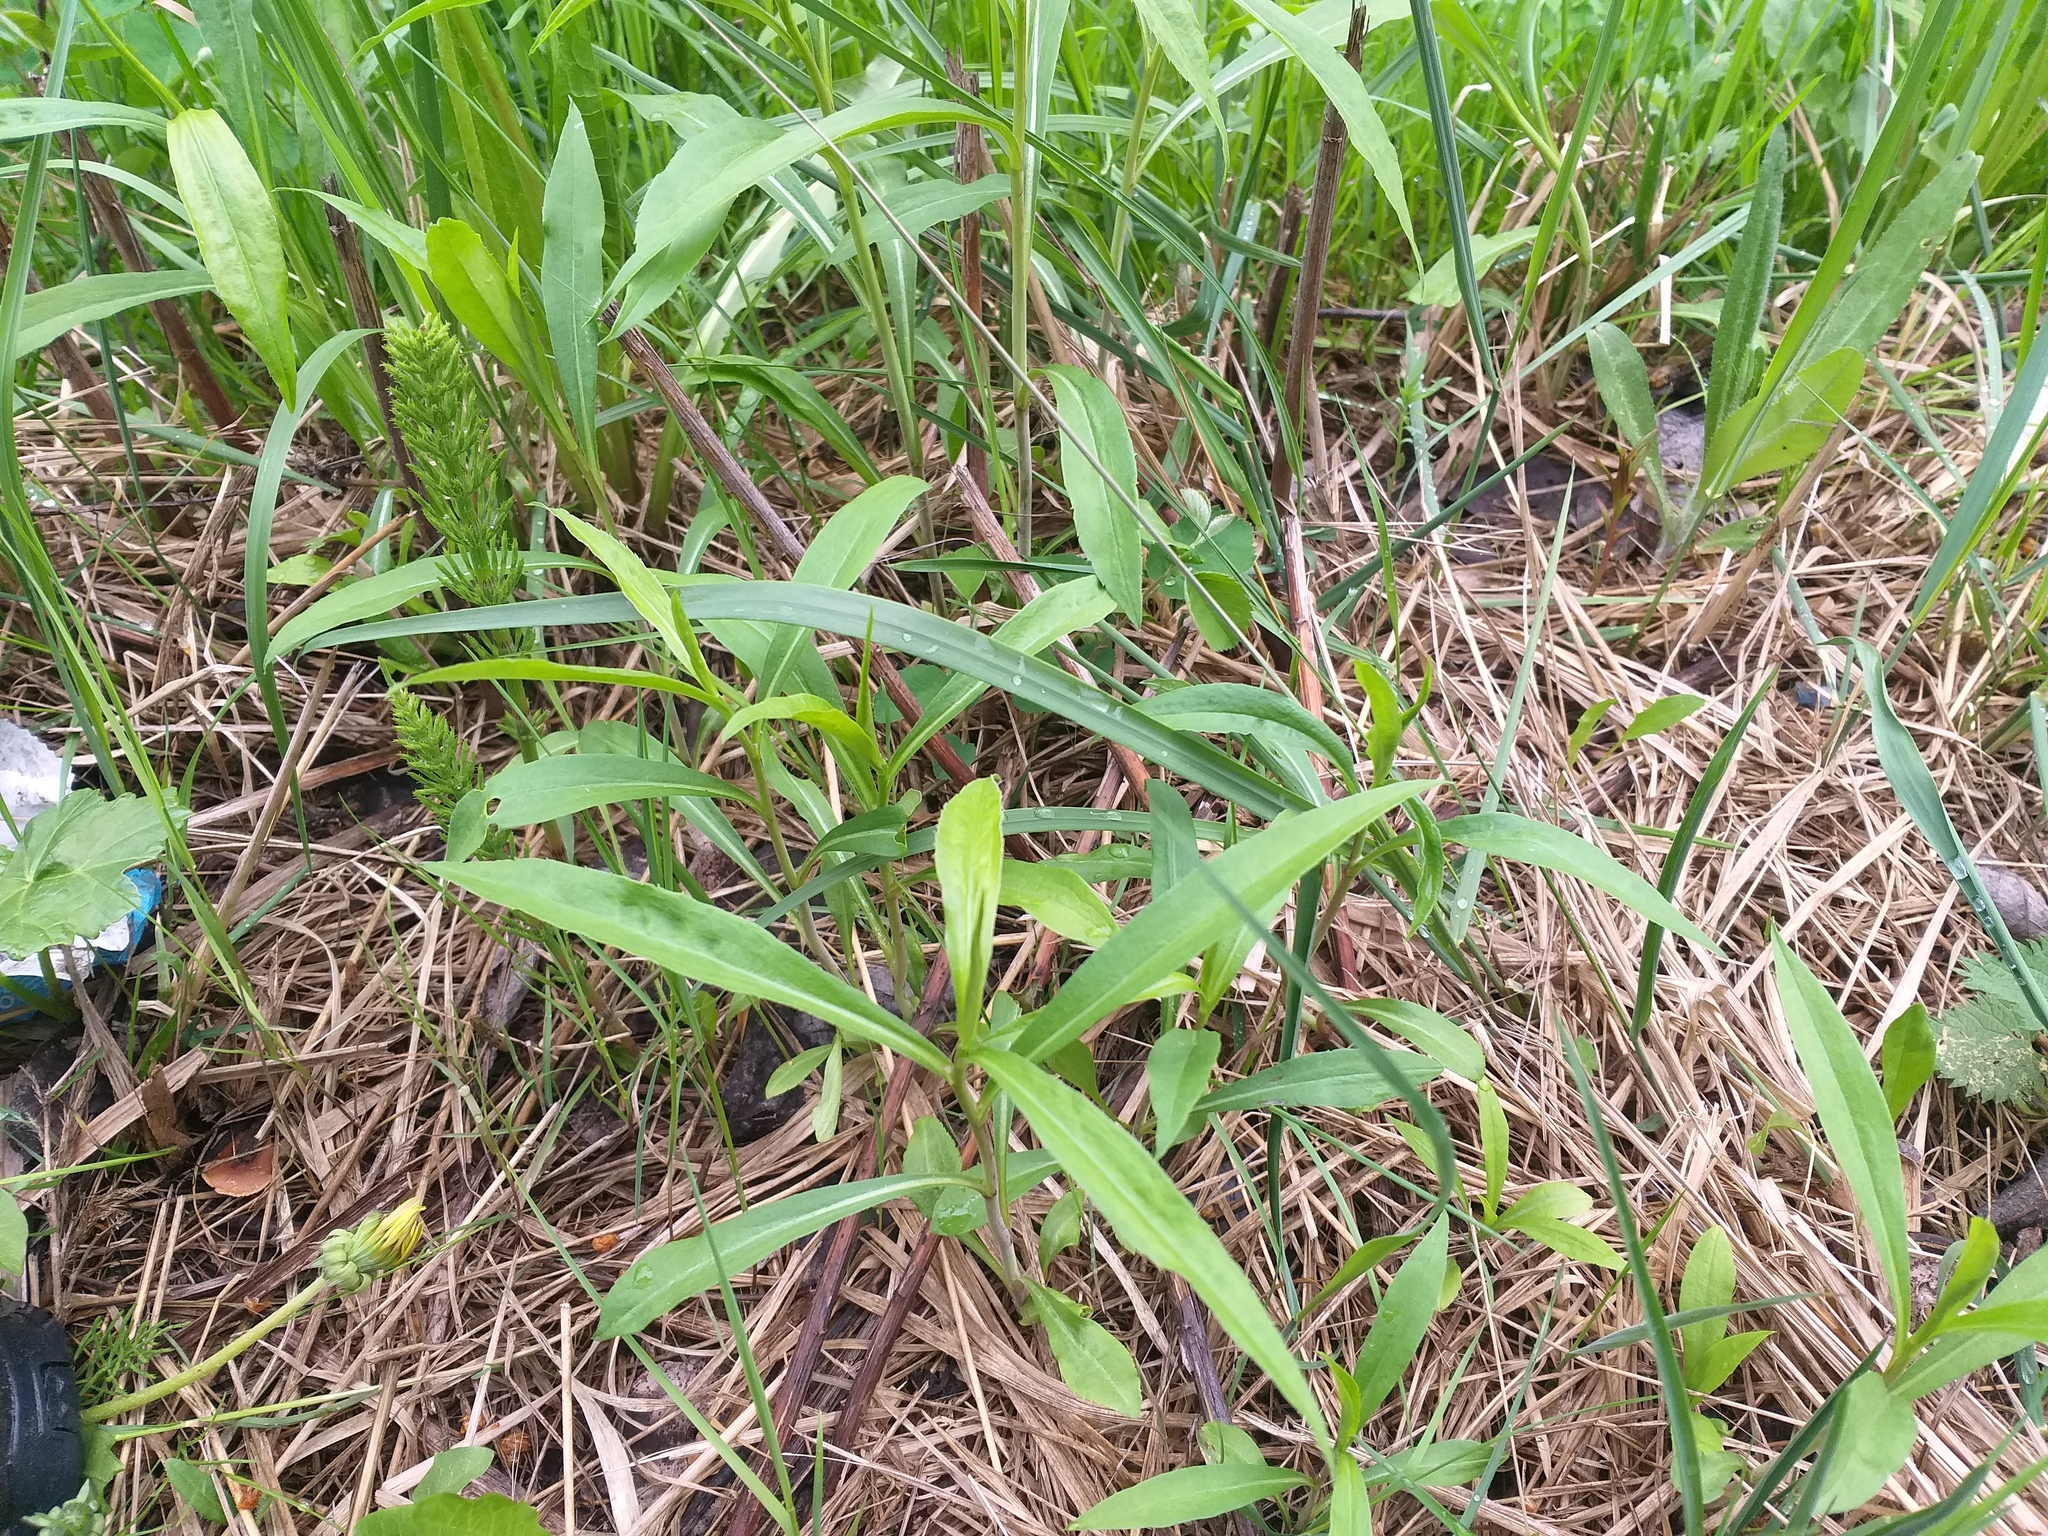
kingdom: Plantae
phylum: Tracheophyta
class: Magnoliopsida
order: Asterales
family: Asteraceae
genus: Solidago
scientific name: Solidago gigantea
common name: Giant goldenrod
